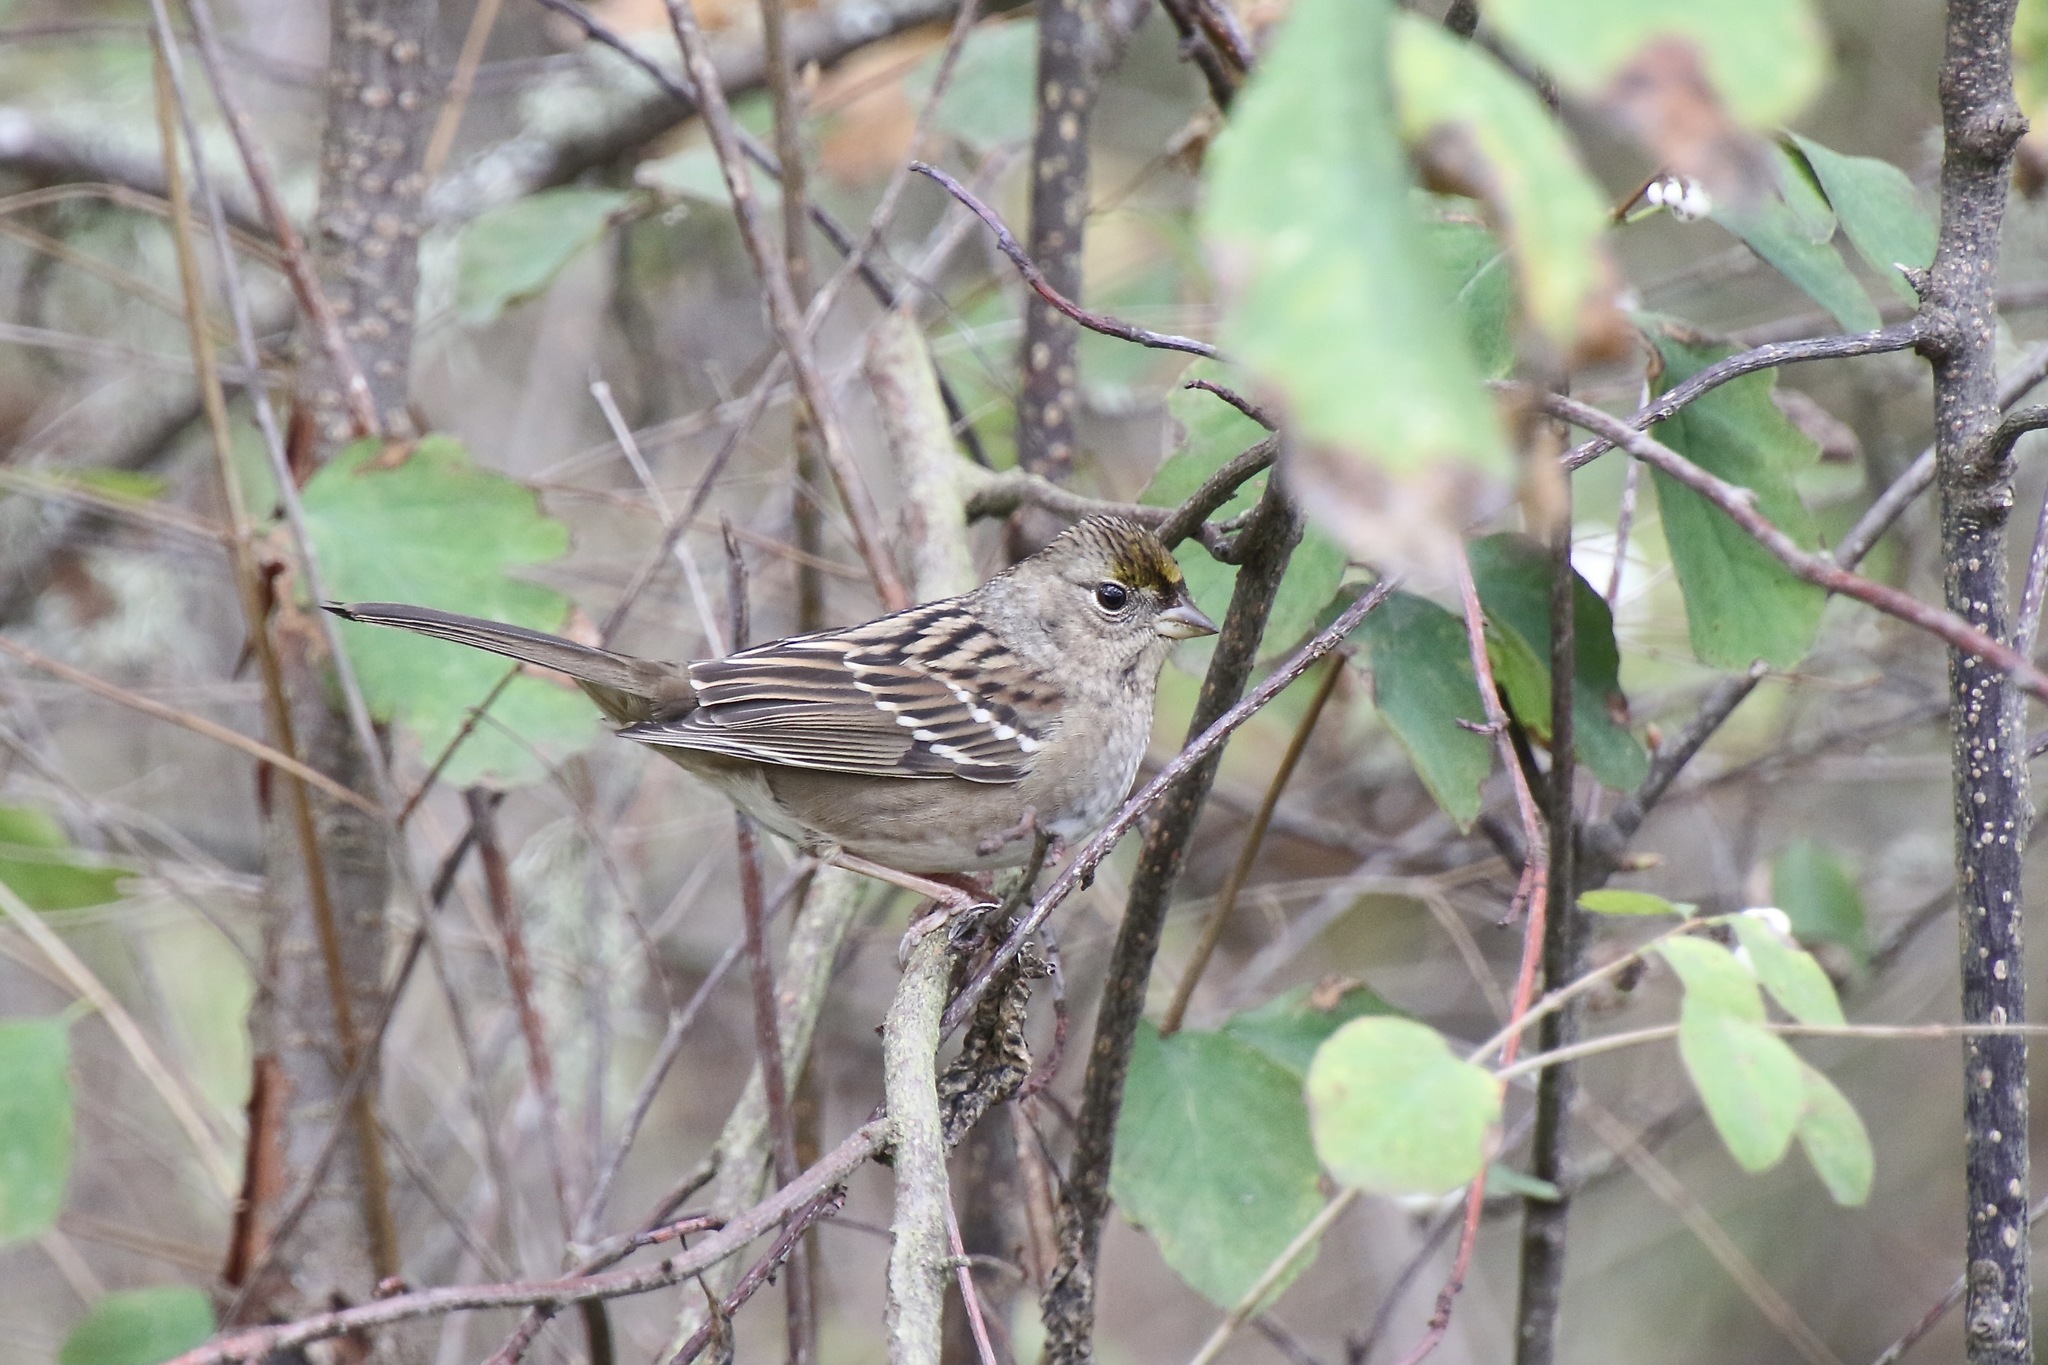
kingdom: Animalia
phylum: Chordata
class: Aves
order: Passeriformes
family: Passerellidae
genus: Zonotrichia
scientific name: Zonotrichia atricapilla
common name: Golden-crowned sparrow
